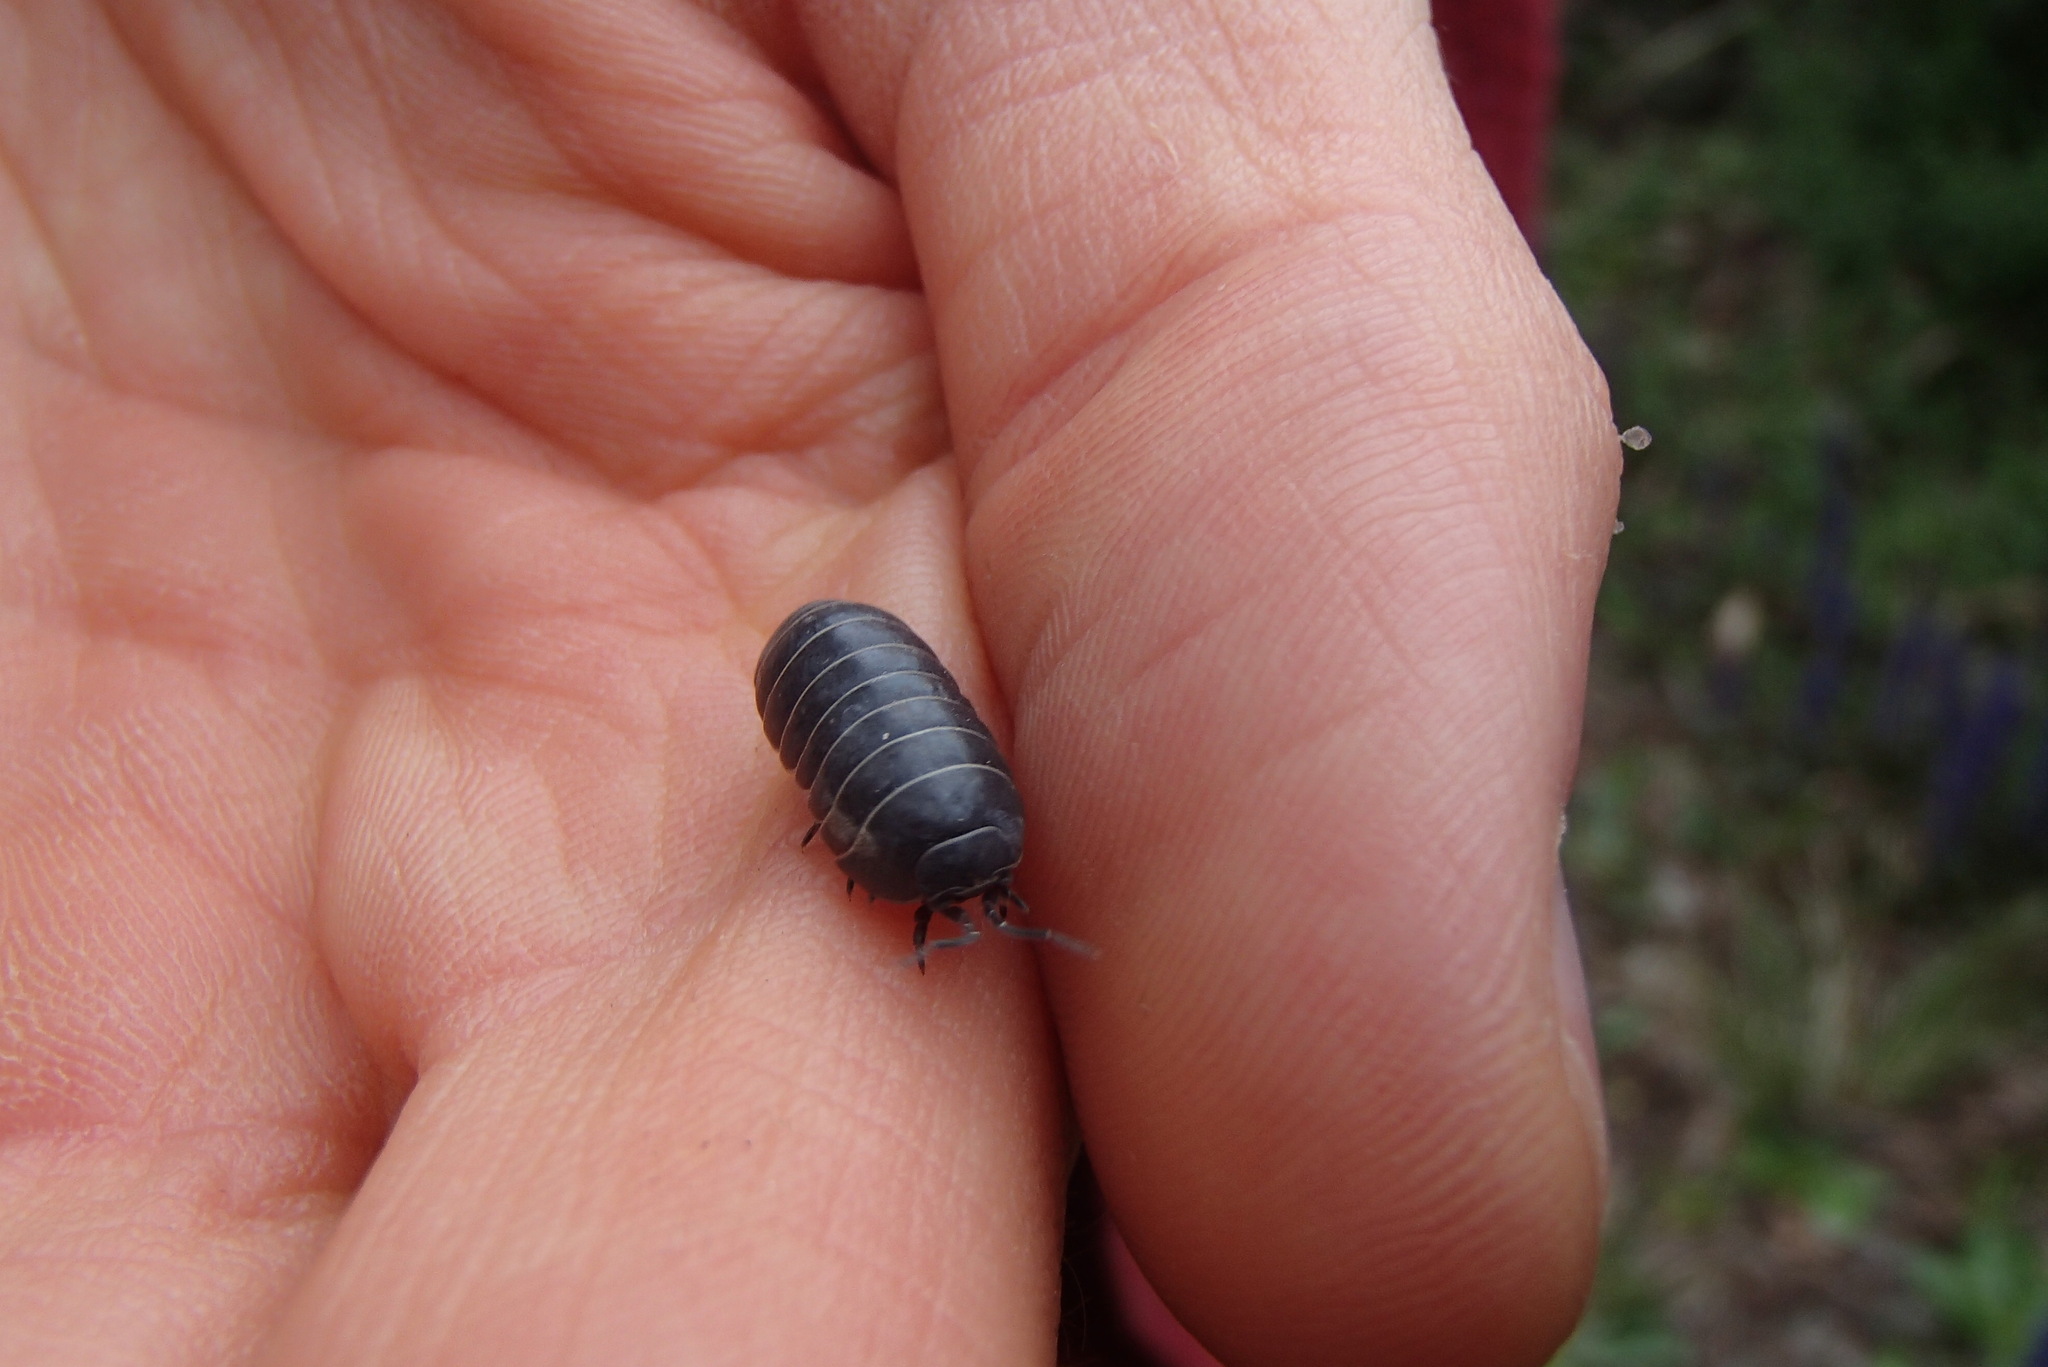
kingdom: Animalia
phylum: Arthropoda
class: Malacostraca
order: Isopoda
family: Armadillidiidae
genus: Armadillidium
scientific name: Armadillidium vulgare
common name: Common pill woodlouse
